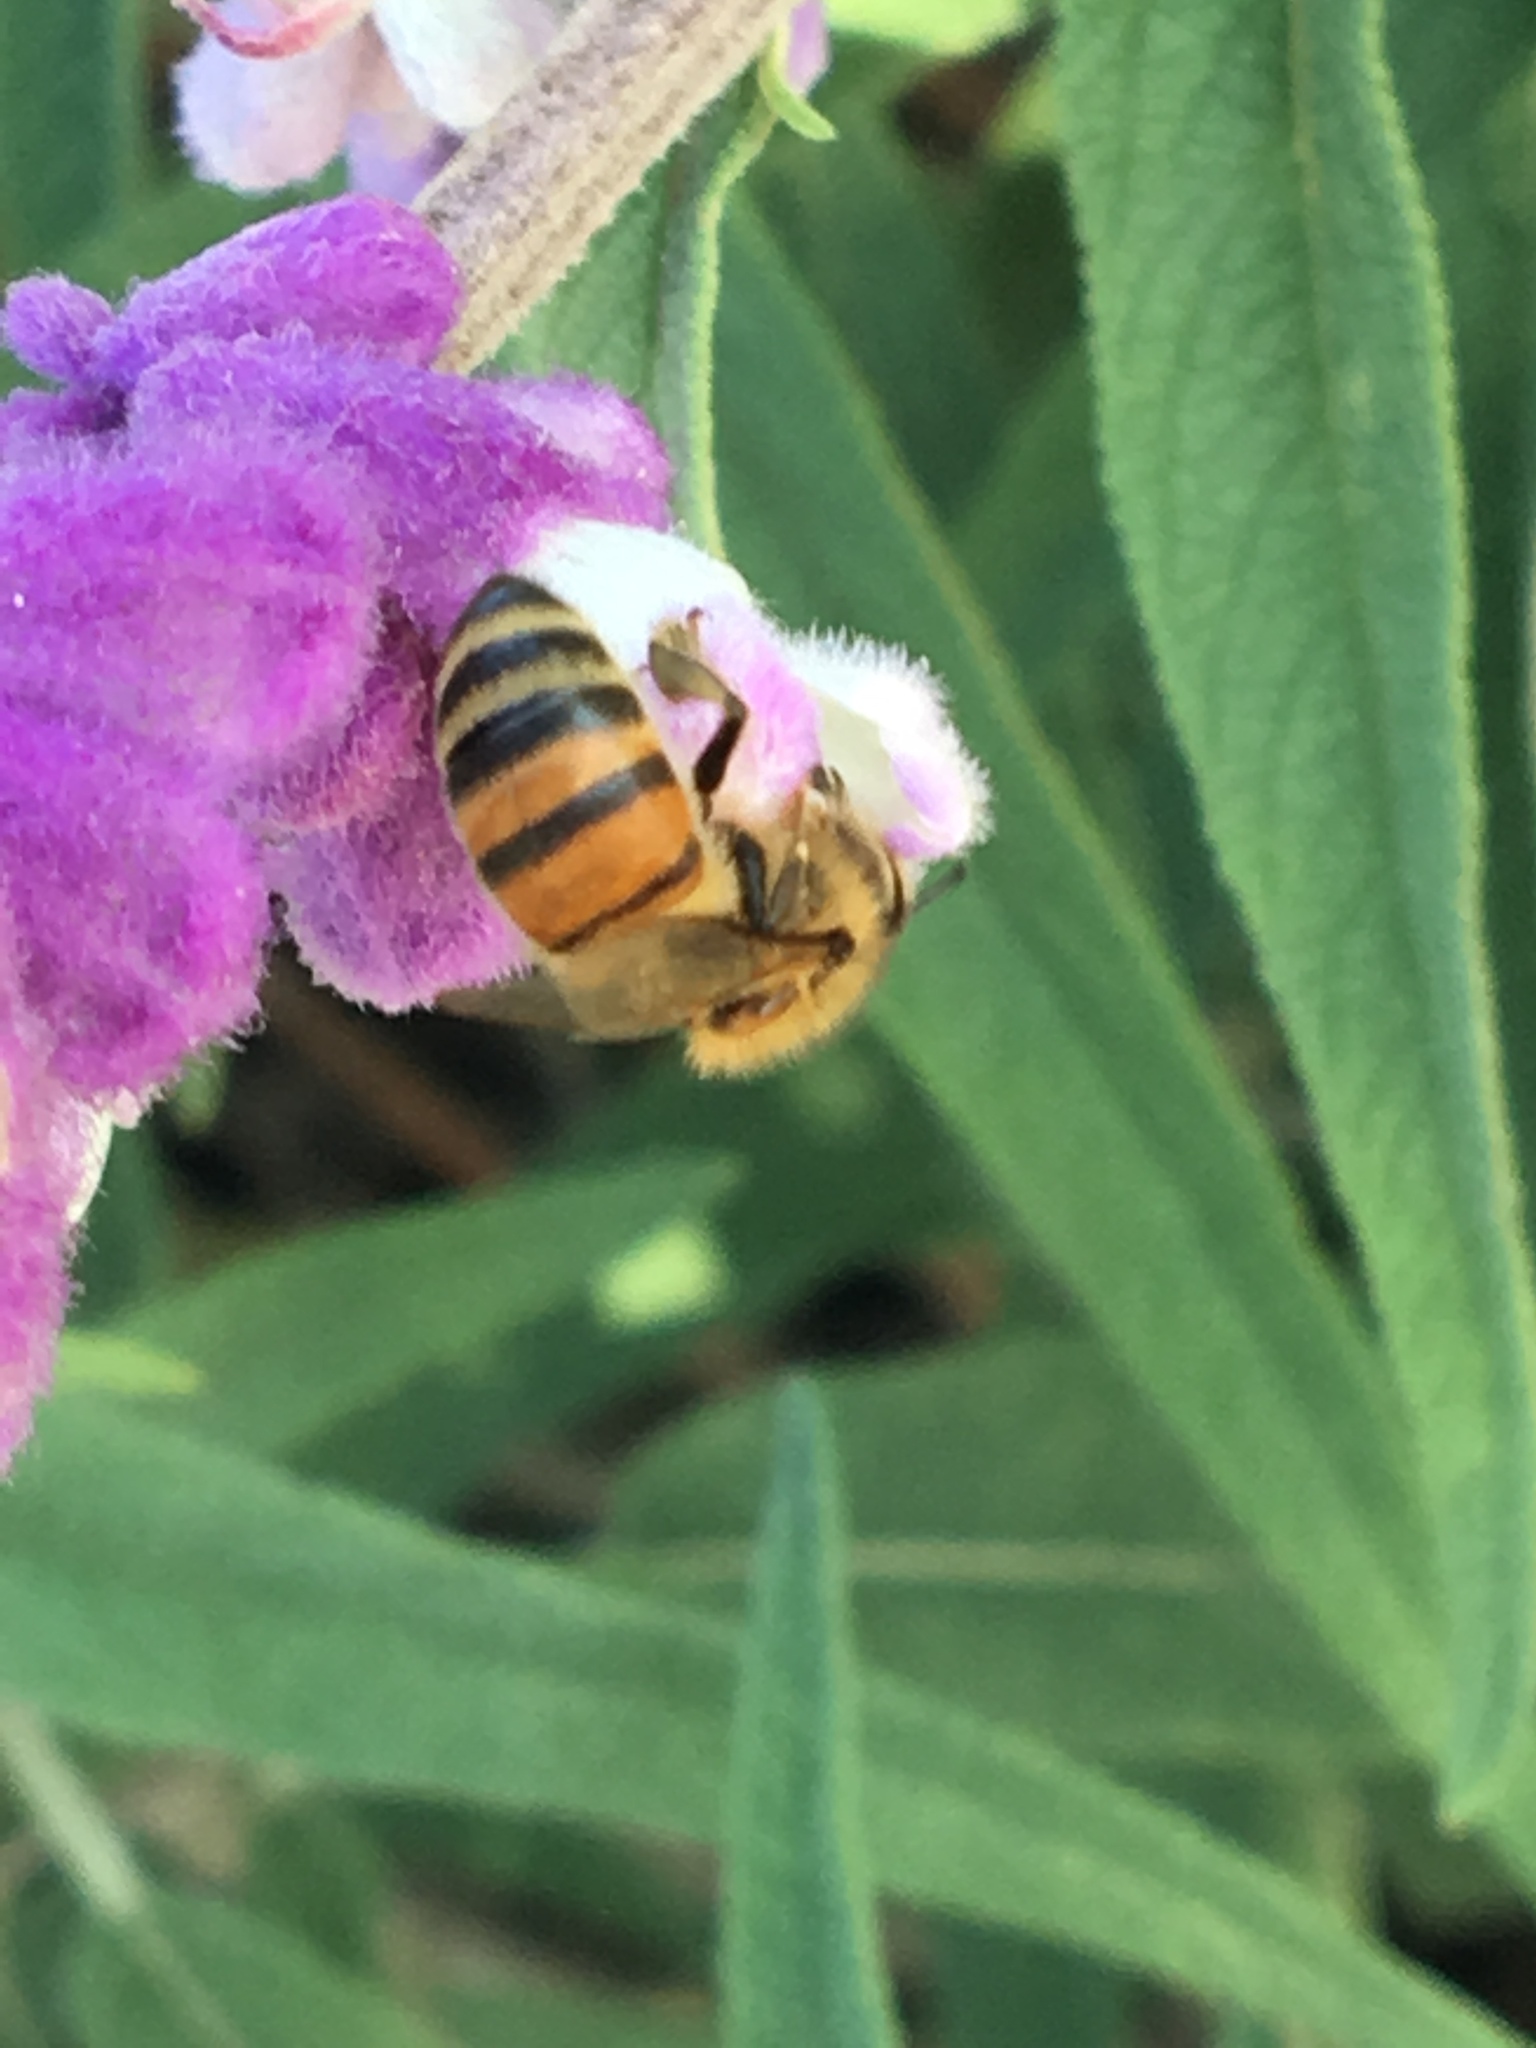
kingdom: Animalia
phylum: Arthropoda
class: Insecta
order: Hymenoptera
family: Apidae
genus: Apis
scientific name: Apis mellifera
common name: Honey bee
